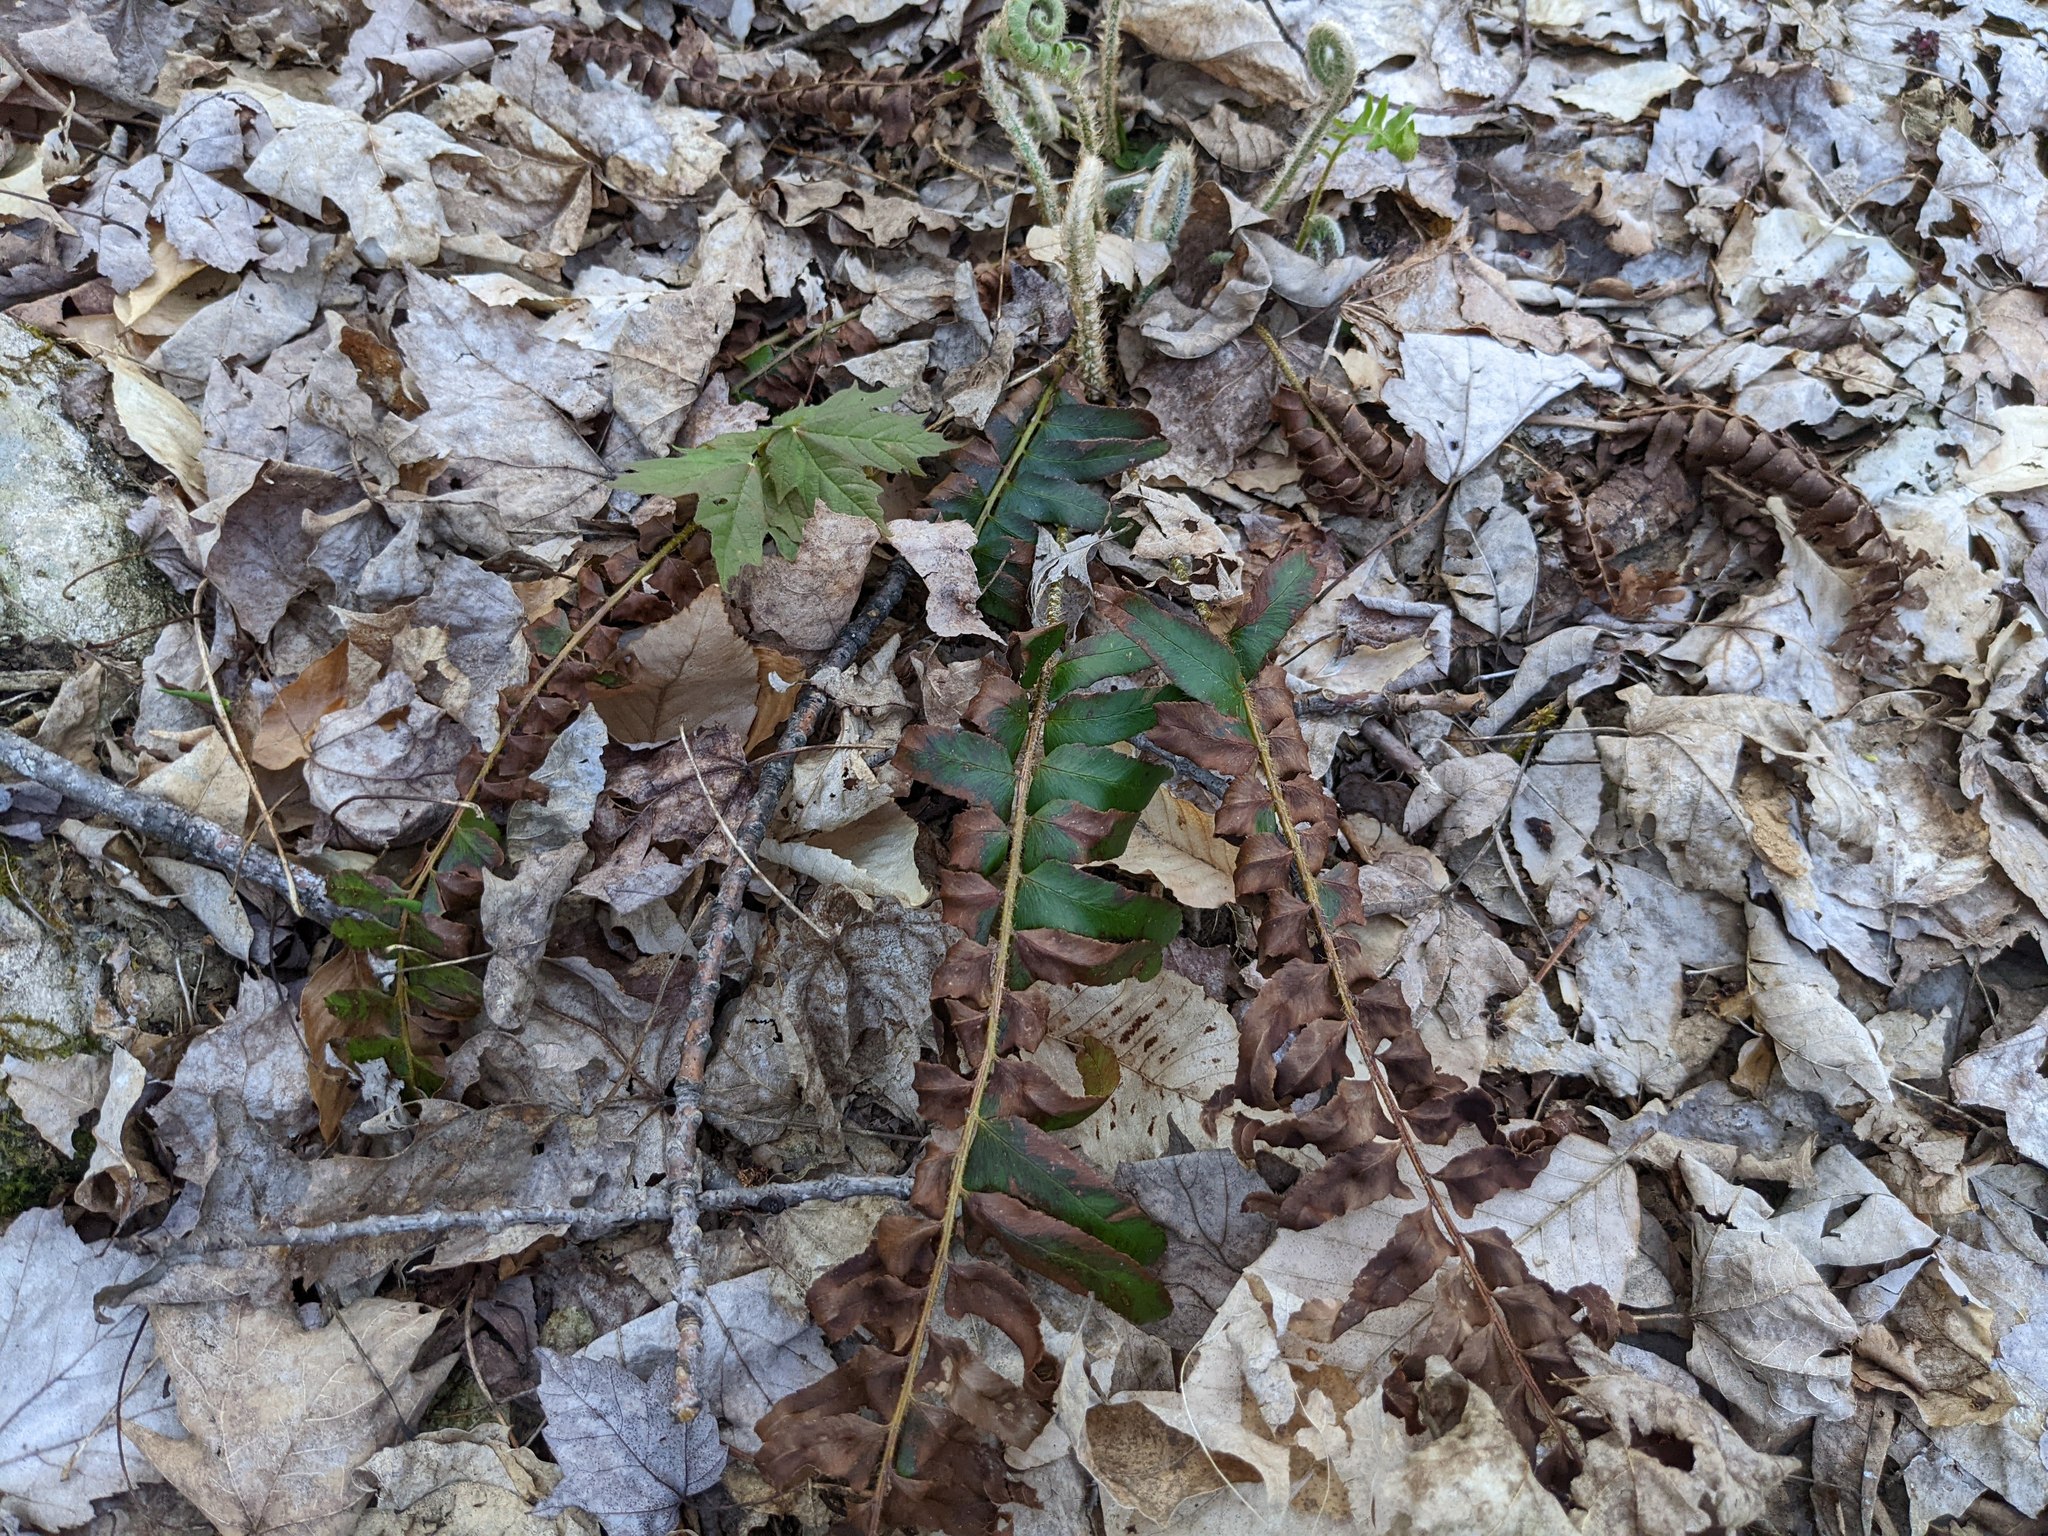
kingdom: Plantae
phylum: Tracheophyta
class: Polypodiopsida
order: Polypodiales
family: Dryopteridaceae
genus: Polystichum
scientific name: Polystichum acrostichoides
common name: Christmas fern
